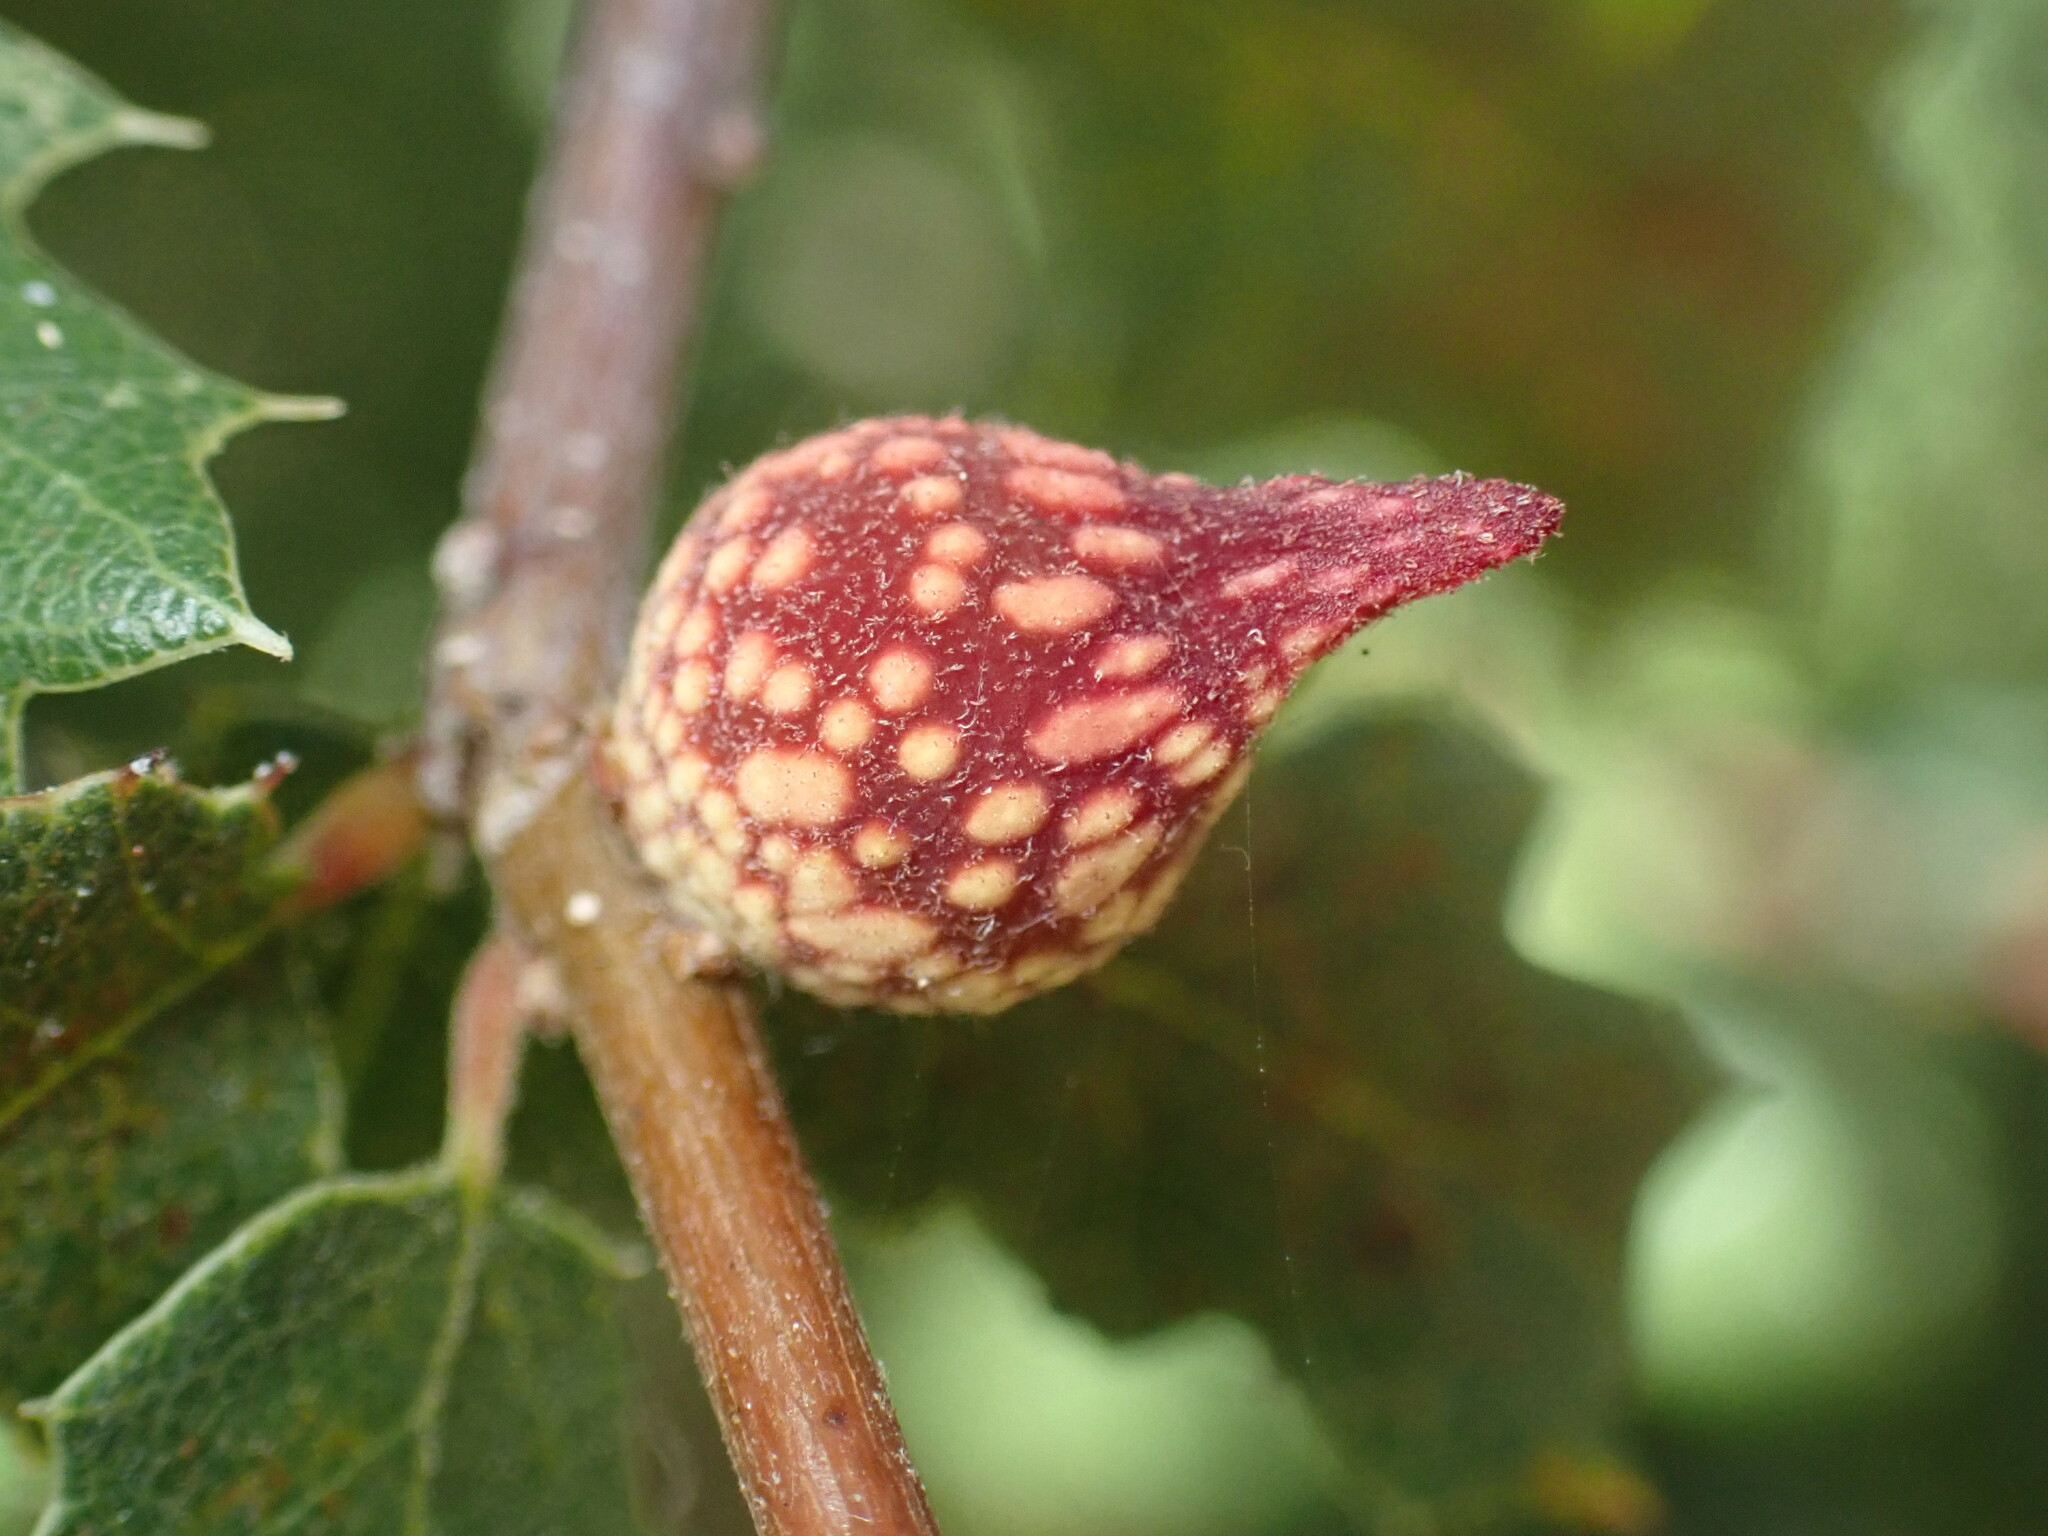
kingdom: Animalia
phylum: Arthropoda
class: Insecta
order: Hymenoptera
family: Cynipidae
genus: Burnettweldia
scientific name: Burnettweldia
